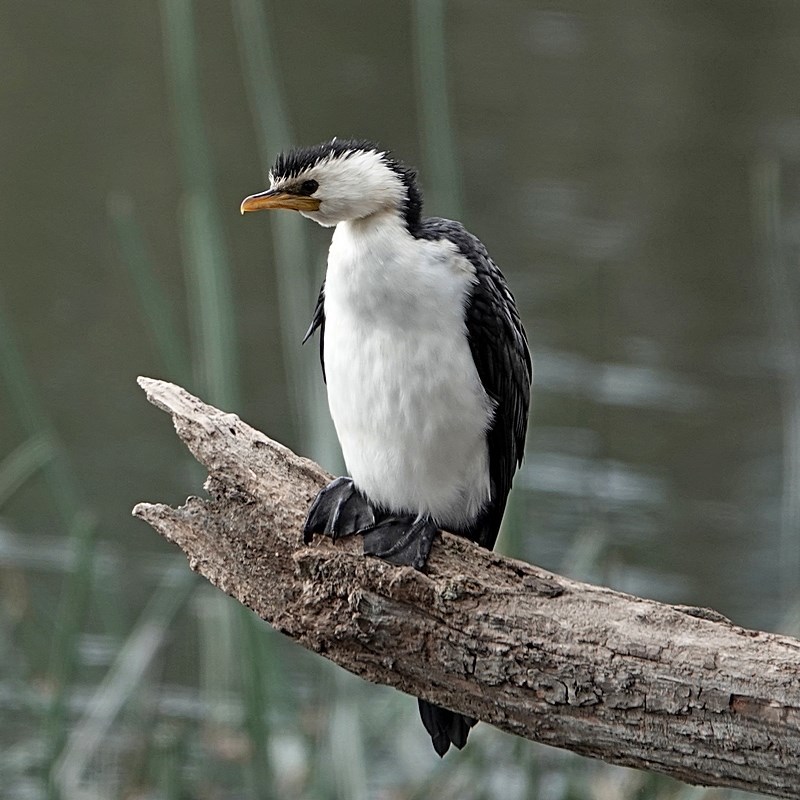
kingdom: Animalia
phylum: Chordata
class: Aves
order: Suliformes
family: Phalacrocoracidae
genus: Microcarbo
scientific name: Microcarbo melanoleucos
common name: Little pied cormorant
